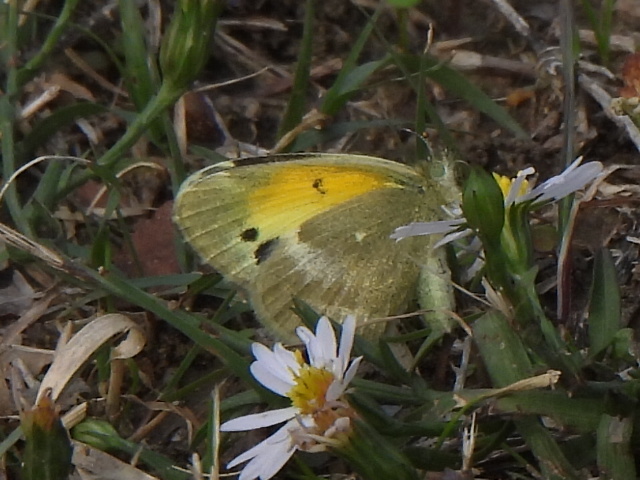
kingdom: Animalia
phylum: Arthropoda
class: Insecta
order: Lepidoptera
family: Pieridae
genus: Nathalis
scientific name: Nathalis iole
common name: Dainty sulphur
